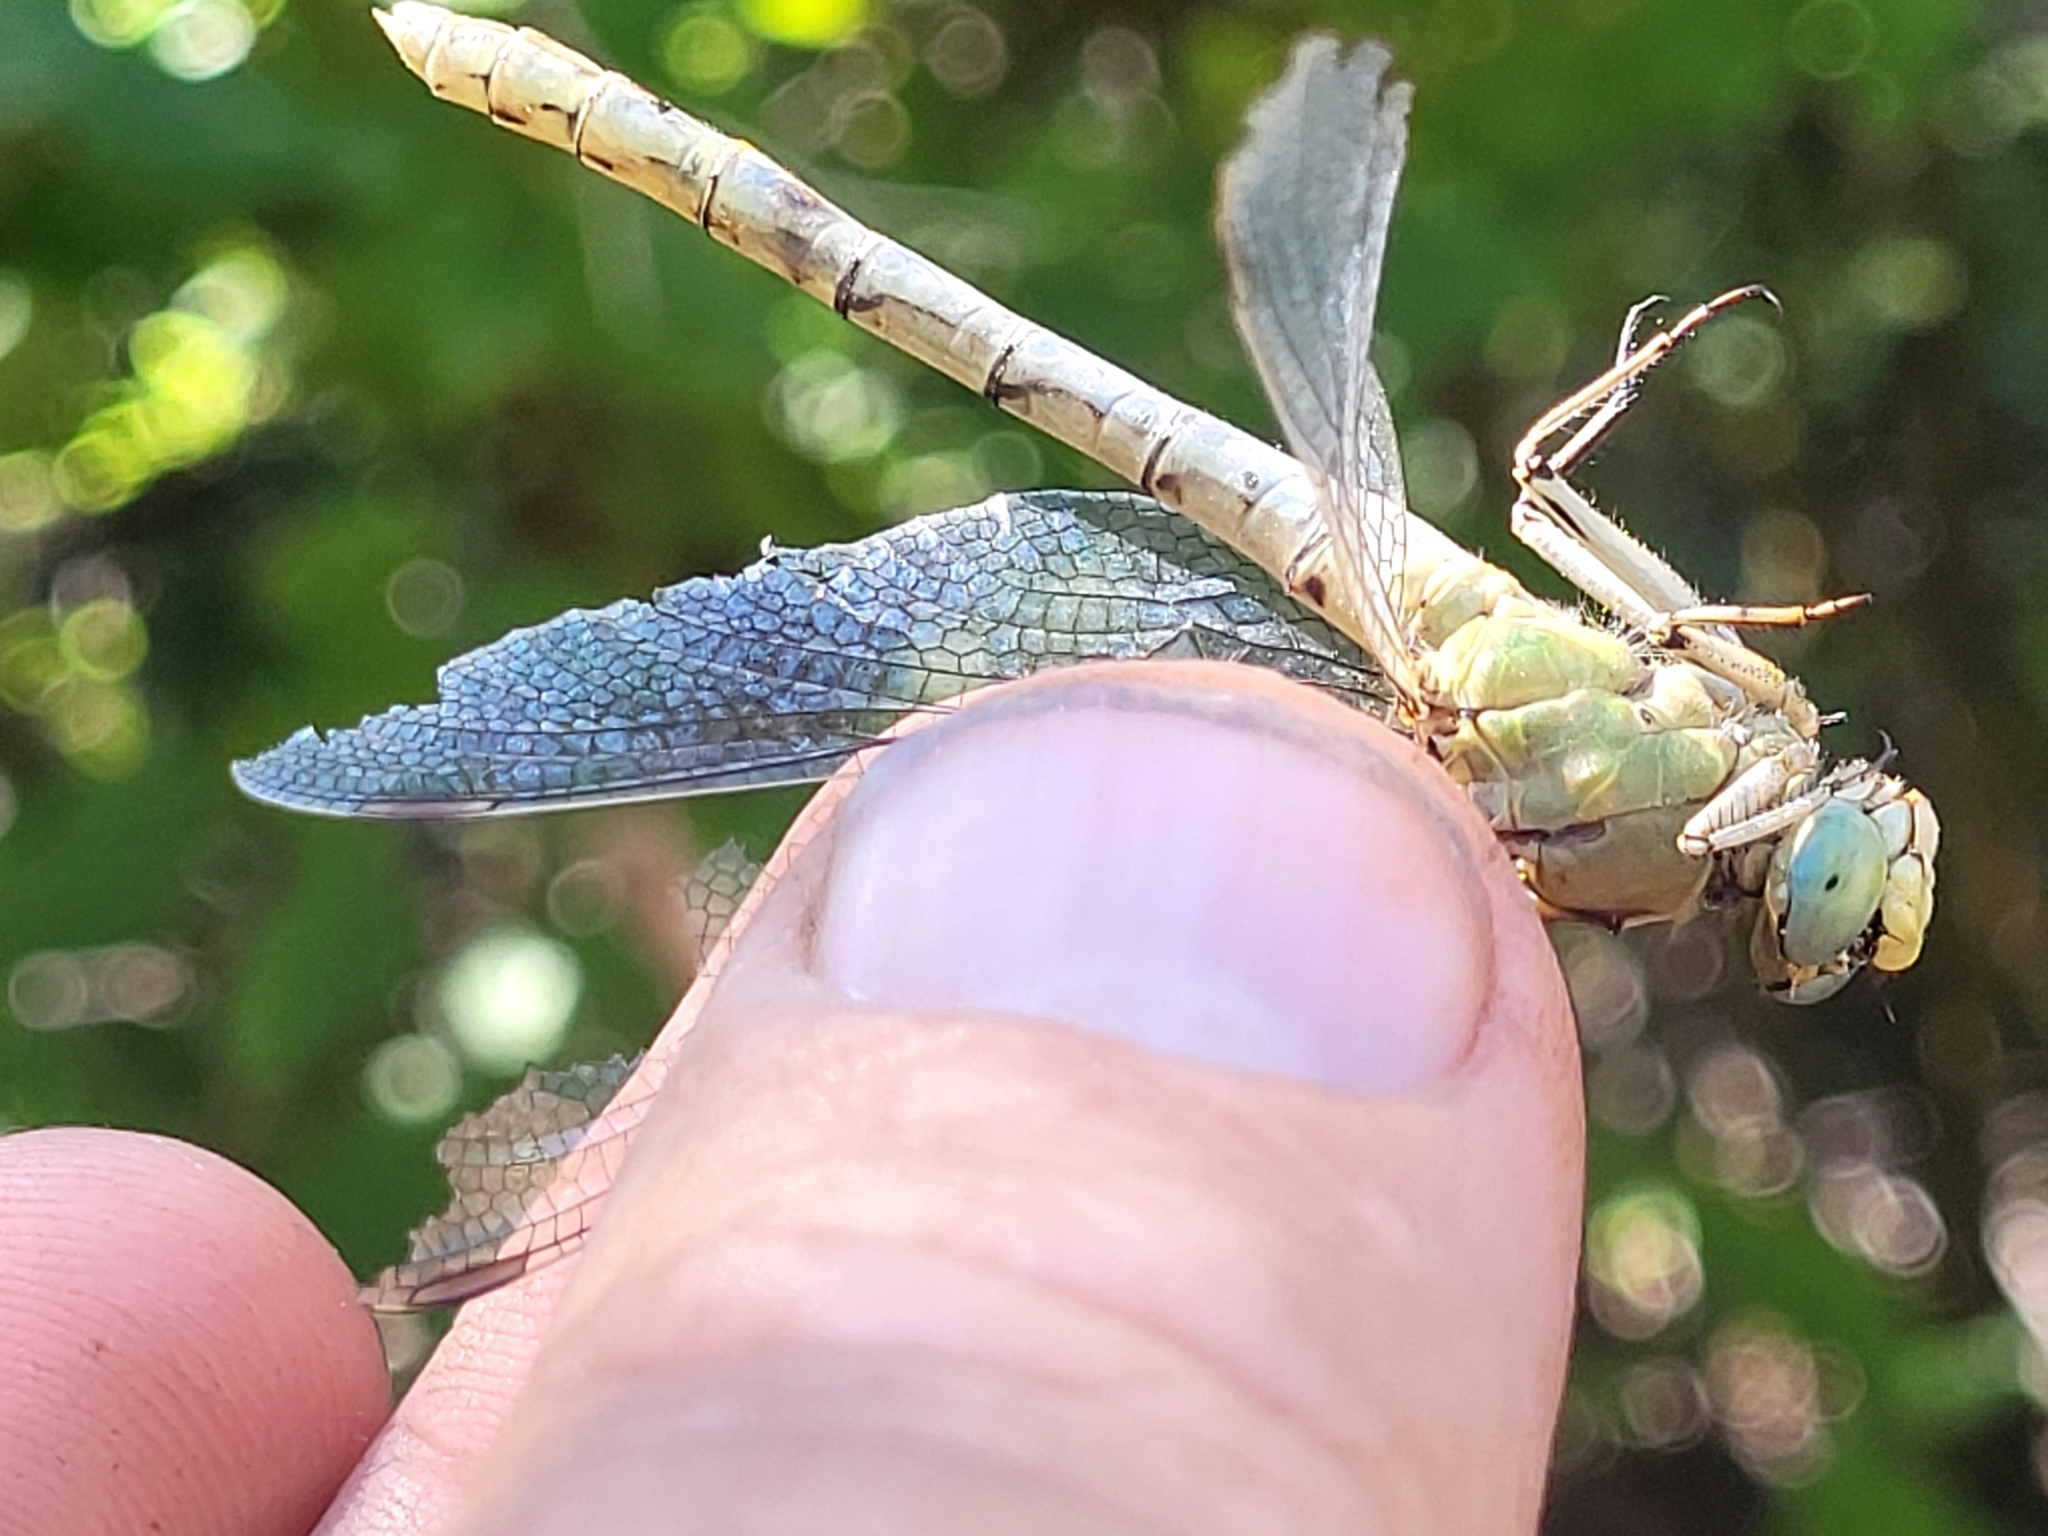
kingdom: Animalia
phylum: Arthropoda
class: Insecta
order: Odonata
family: Gomphidae
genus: Ophiogomphus
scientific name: Ophiogomphus severus
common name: Pale snaketail
